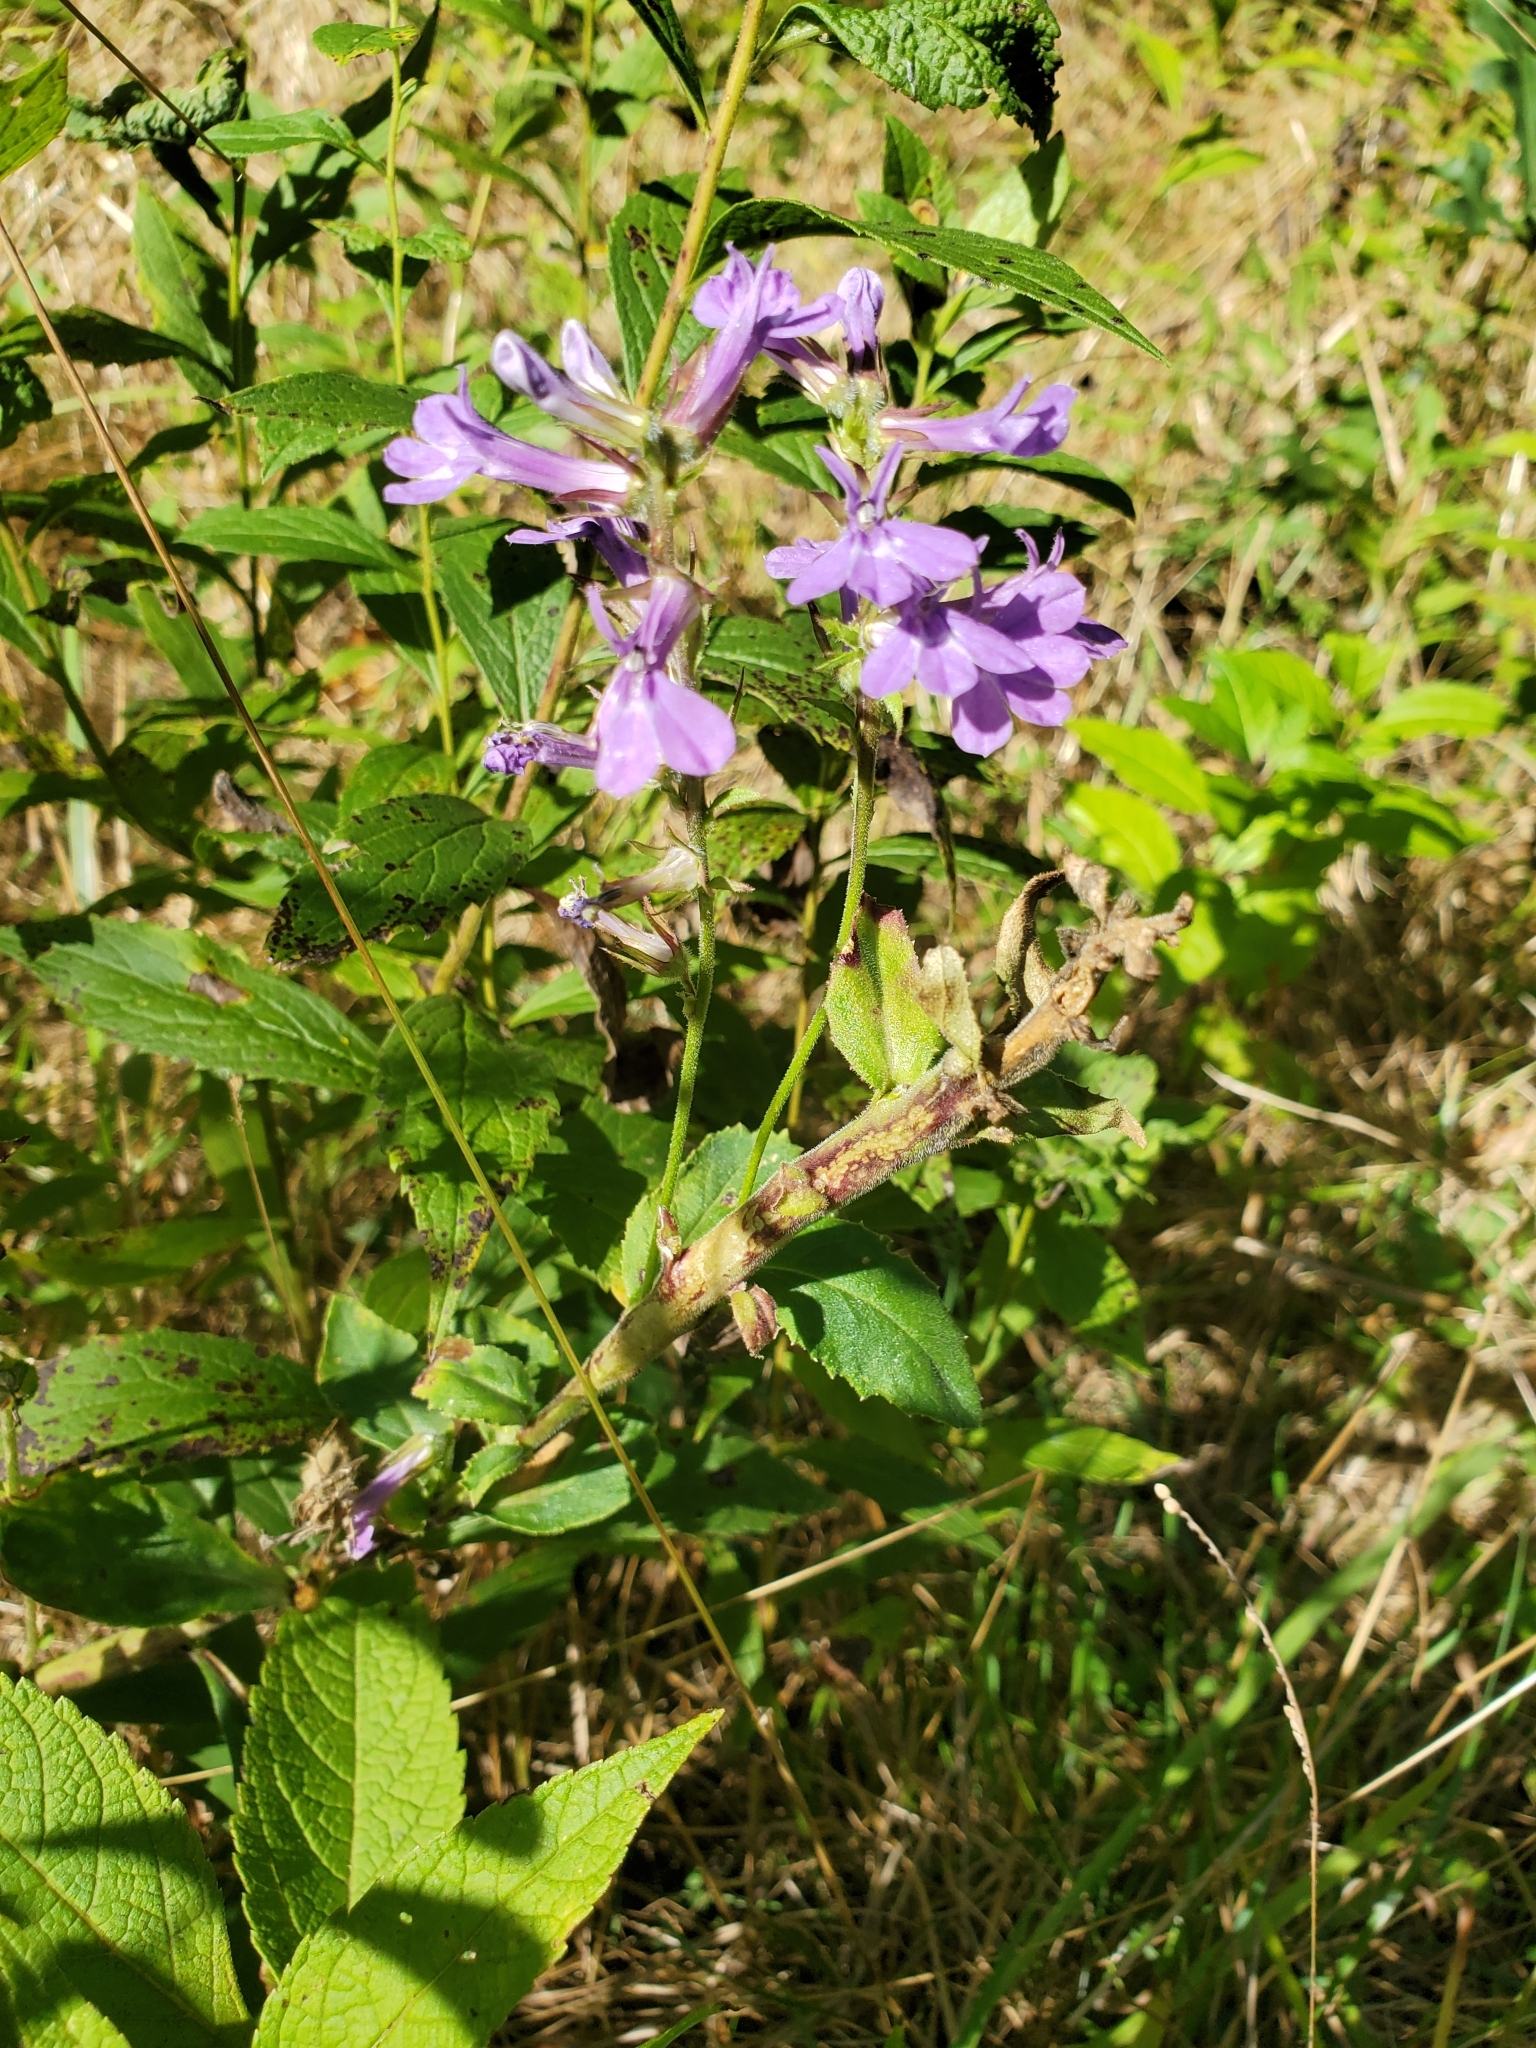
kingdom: Plantae
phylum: Tracheophyta
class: Magnoliopsida
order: Asterales
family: Campanulaceae
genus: Lobelia
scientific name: Lobelia puberula
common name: Purple dewdrop
